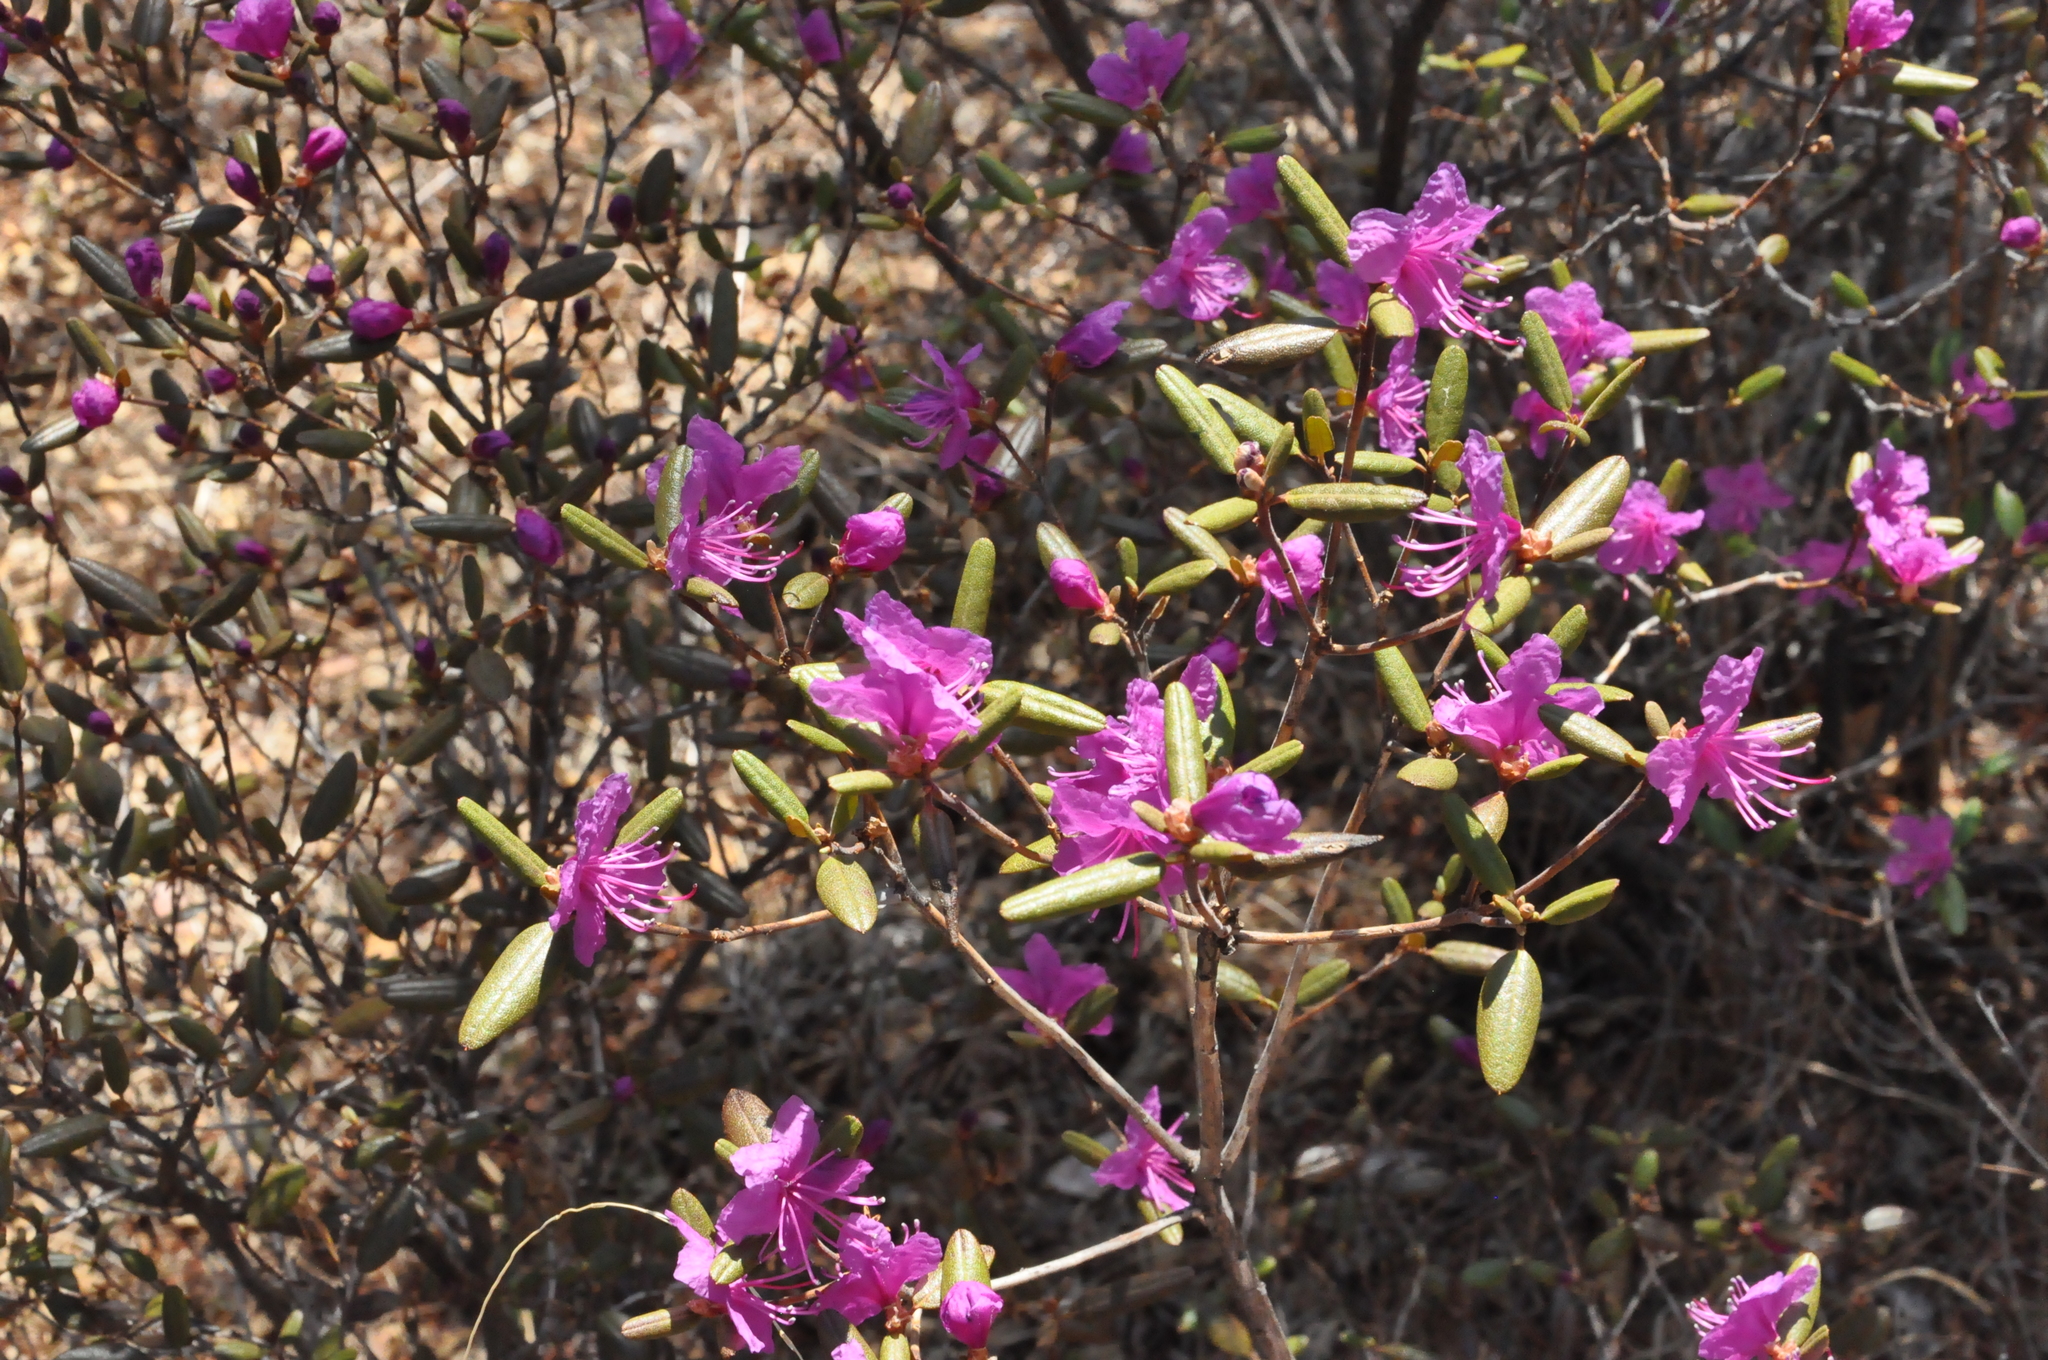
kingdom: Plantae
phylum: Tracheophyta
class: Magnoliopsida
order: Ericales
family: Ericaceae
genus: Rhododendron
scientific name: Rhododendron dauricum
